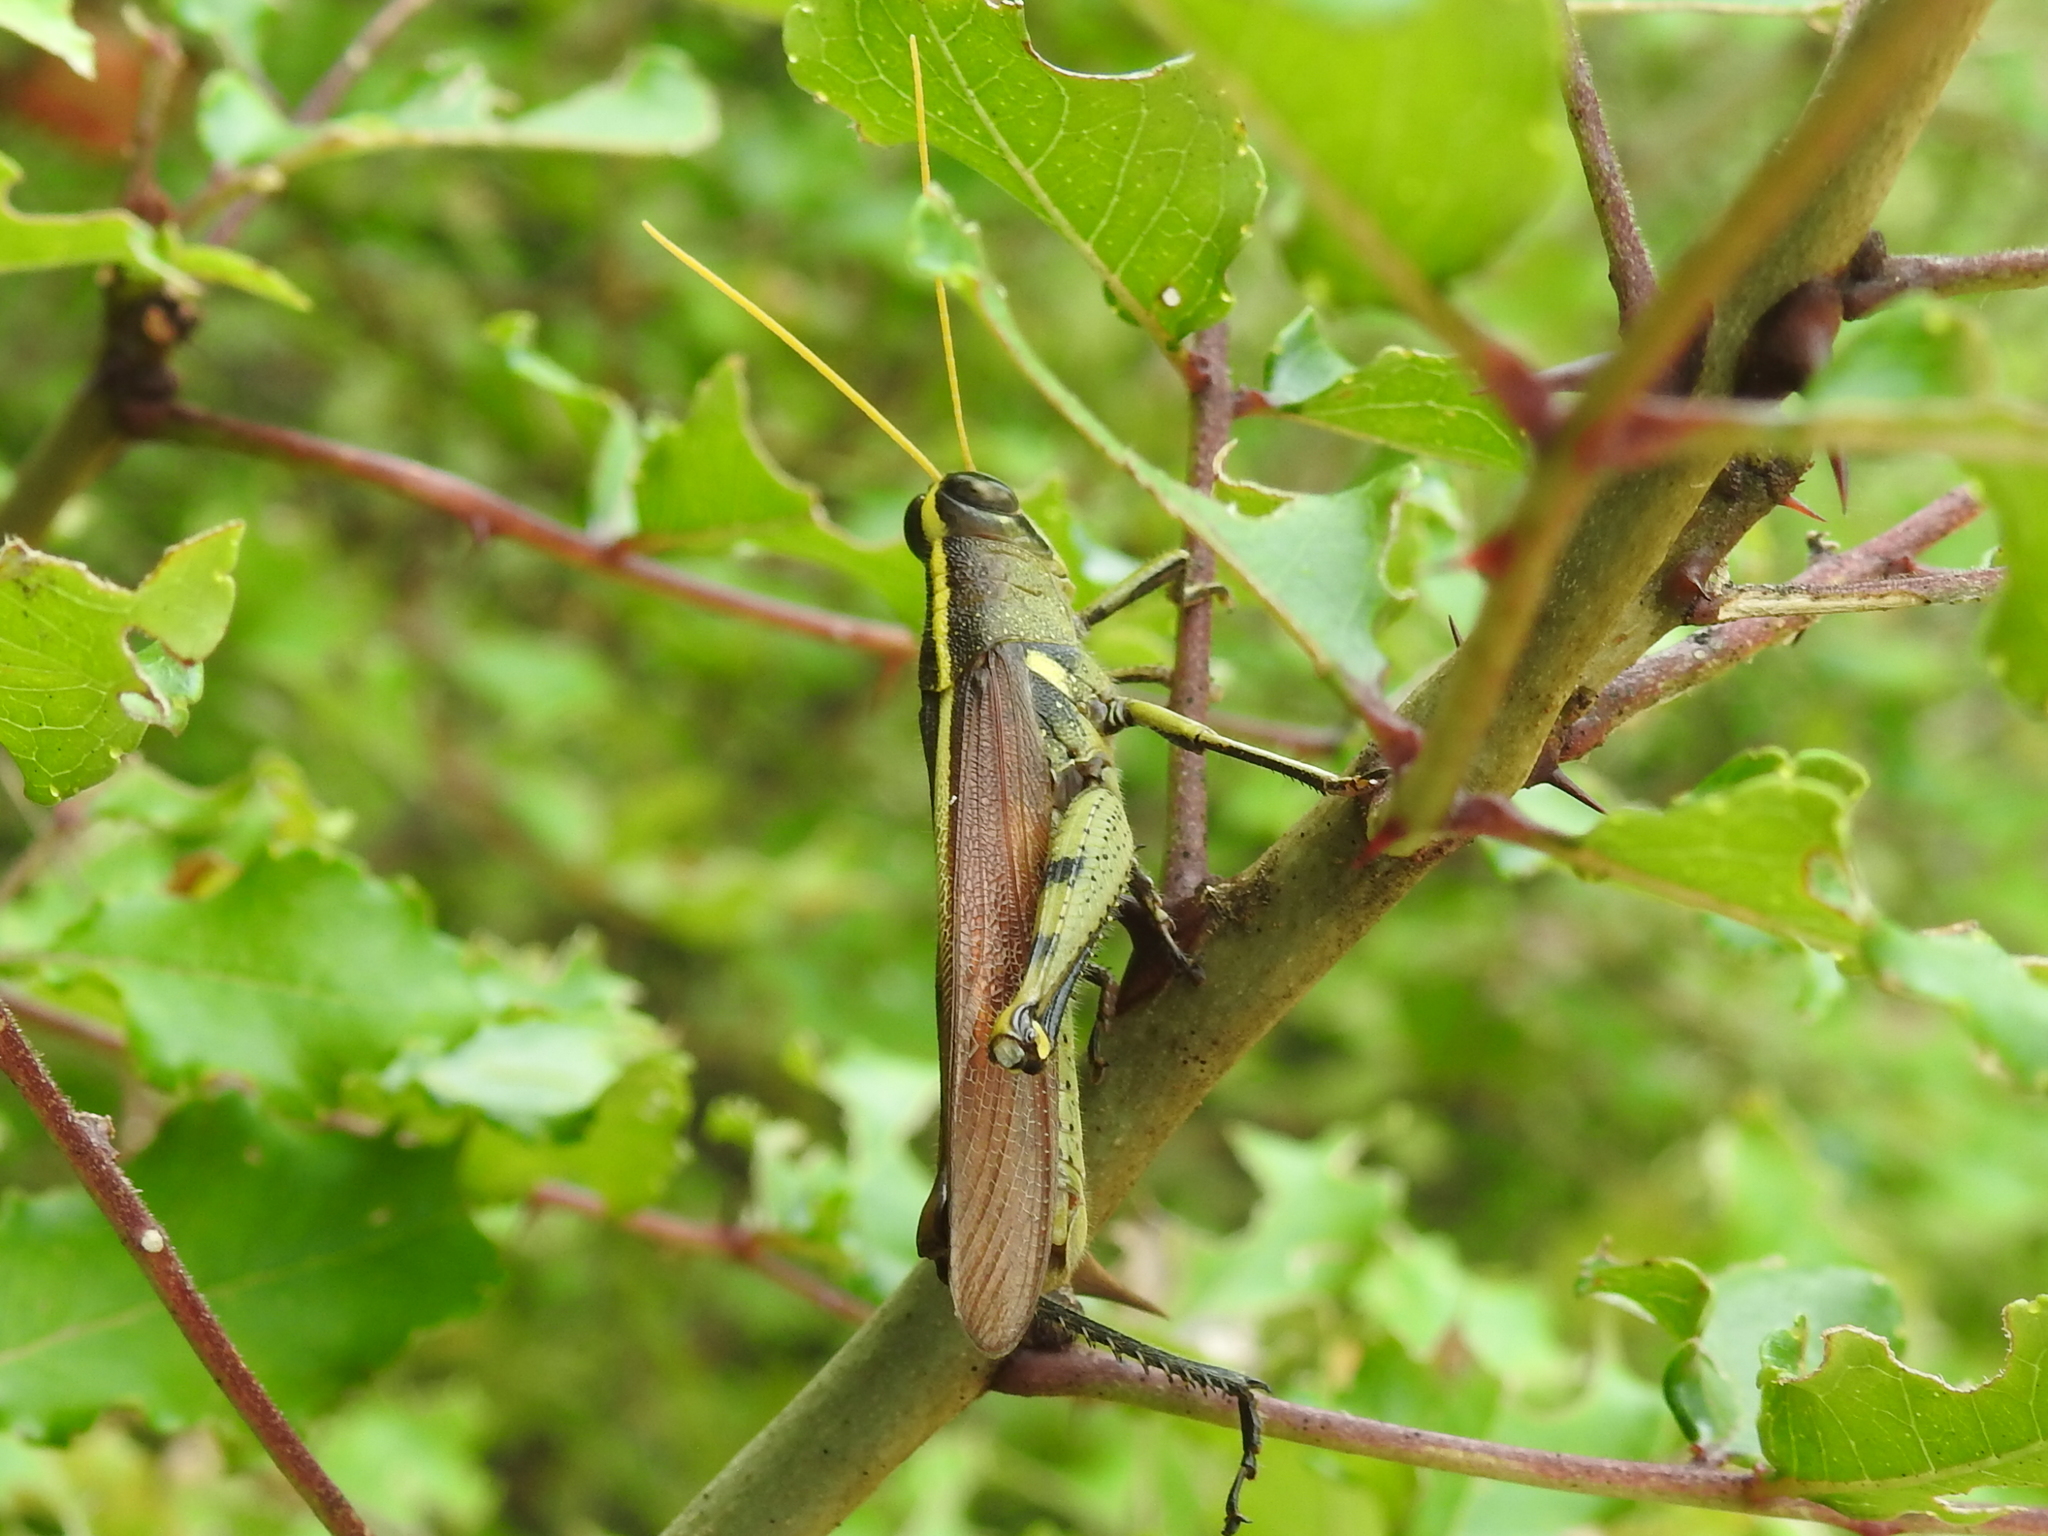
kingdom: Animalia
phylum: Arthropoda
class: Insecta
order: Orthoptera
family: Acrididae
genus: Schistocerca
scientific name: Schistocerca obscura
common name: Obscure bird grasshopper
